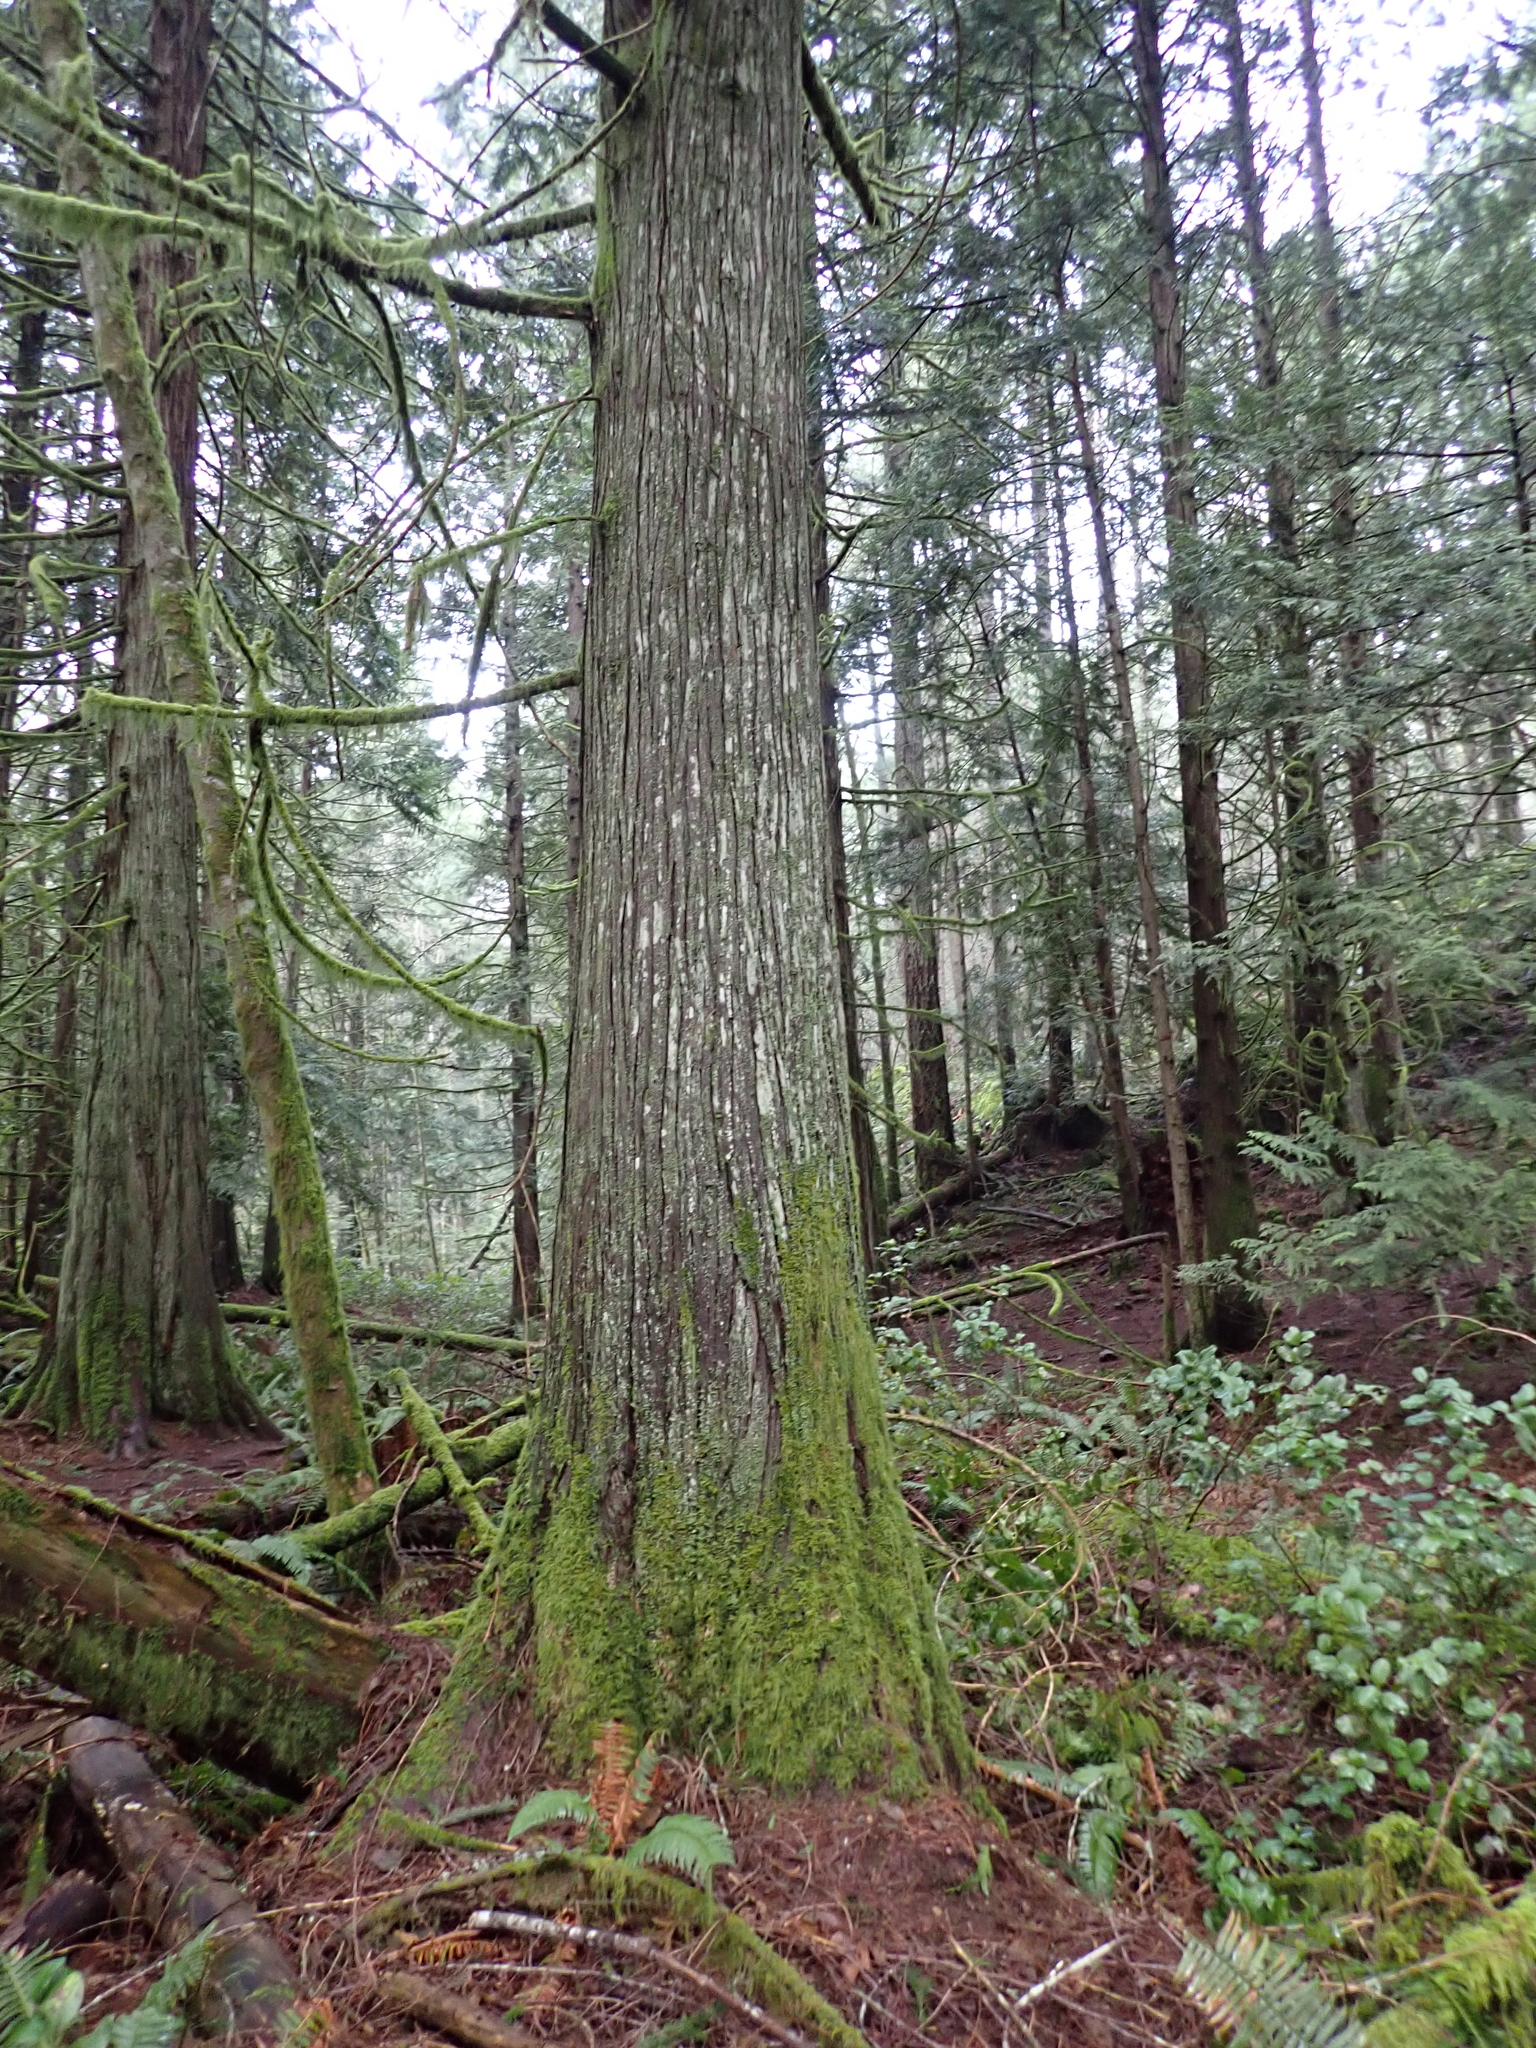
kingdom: Plantae
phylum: Tracheophyta
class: Pinopsida
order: Pinales
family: Cupressaceae
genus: Thuja
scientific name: Thuja plicata
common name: Western red-cedar
